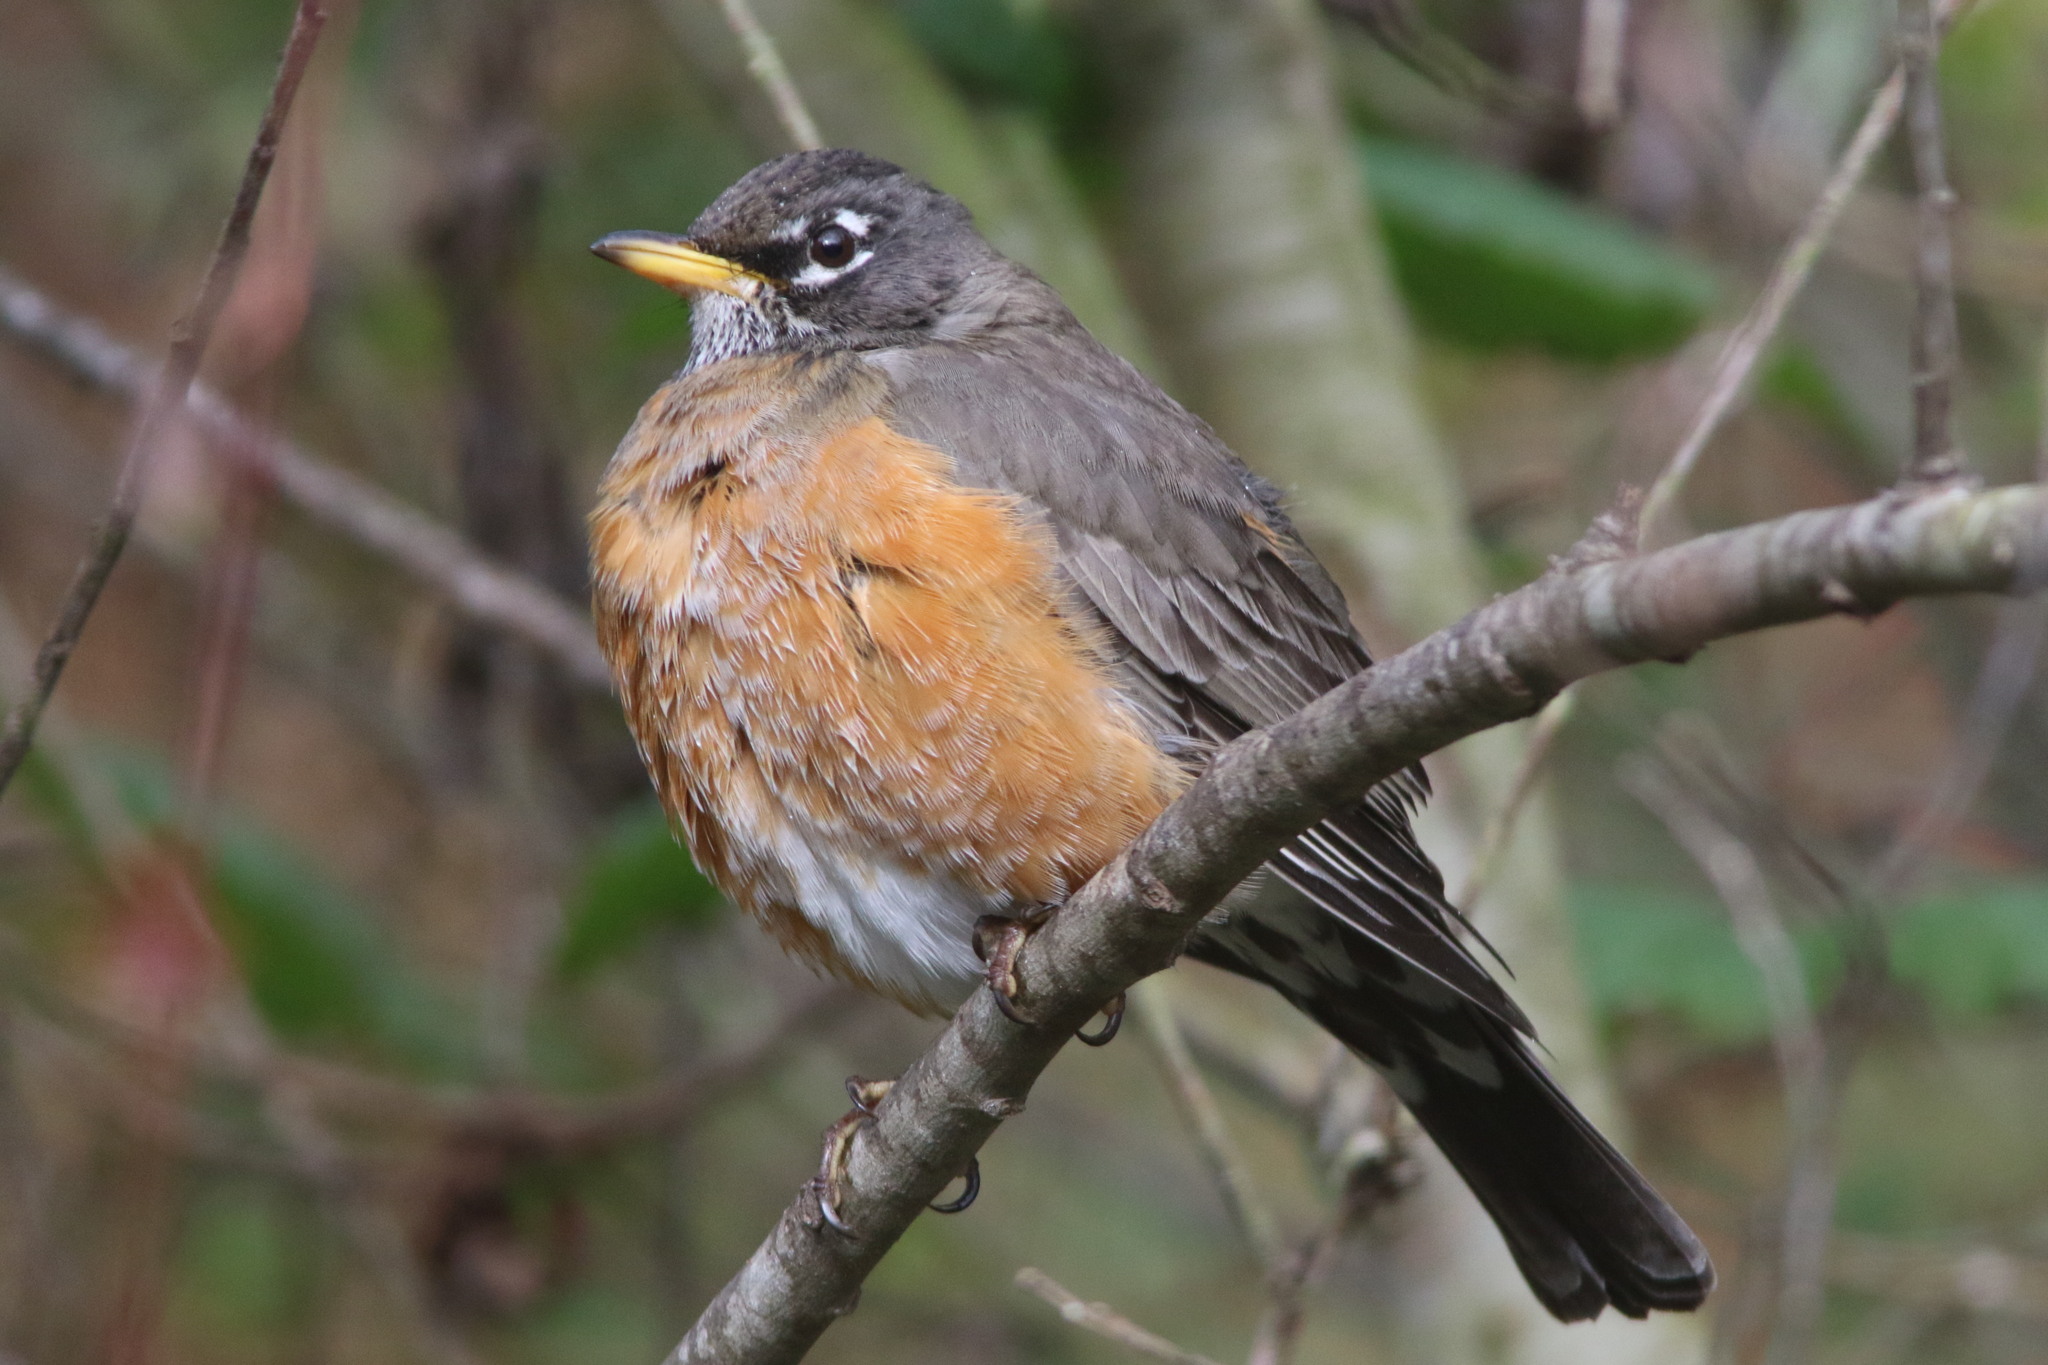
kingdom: Animalia
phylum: Chordata
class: Aves
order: Passeriformes
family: Turdidae
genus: Turdus
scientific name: Turdus migratorius
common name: American robin
